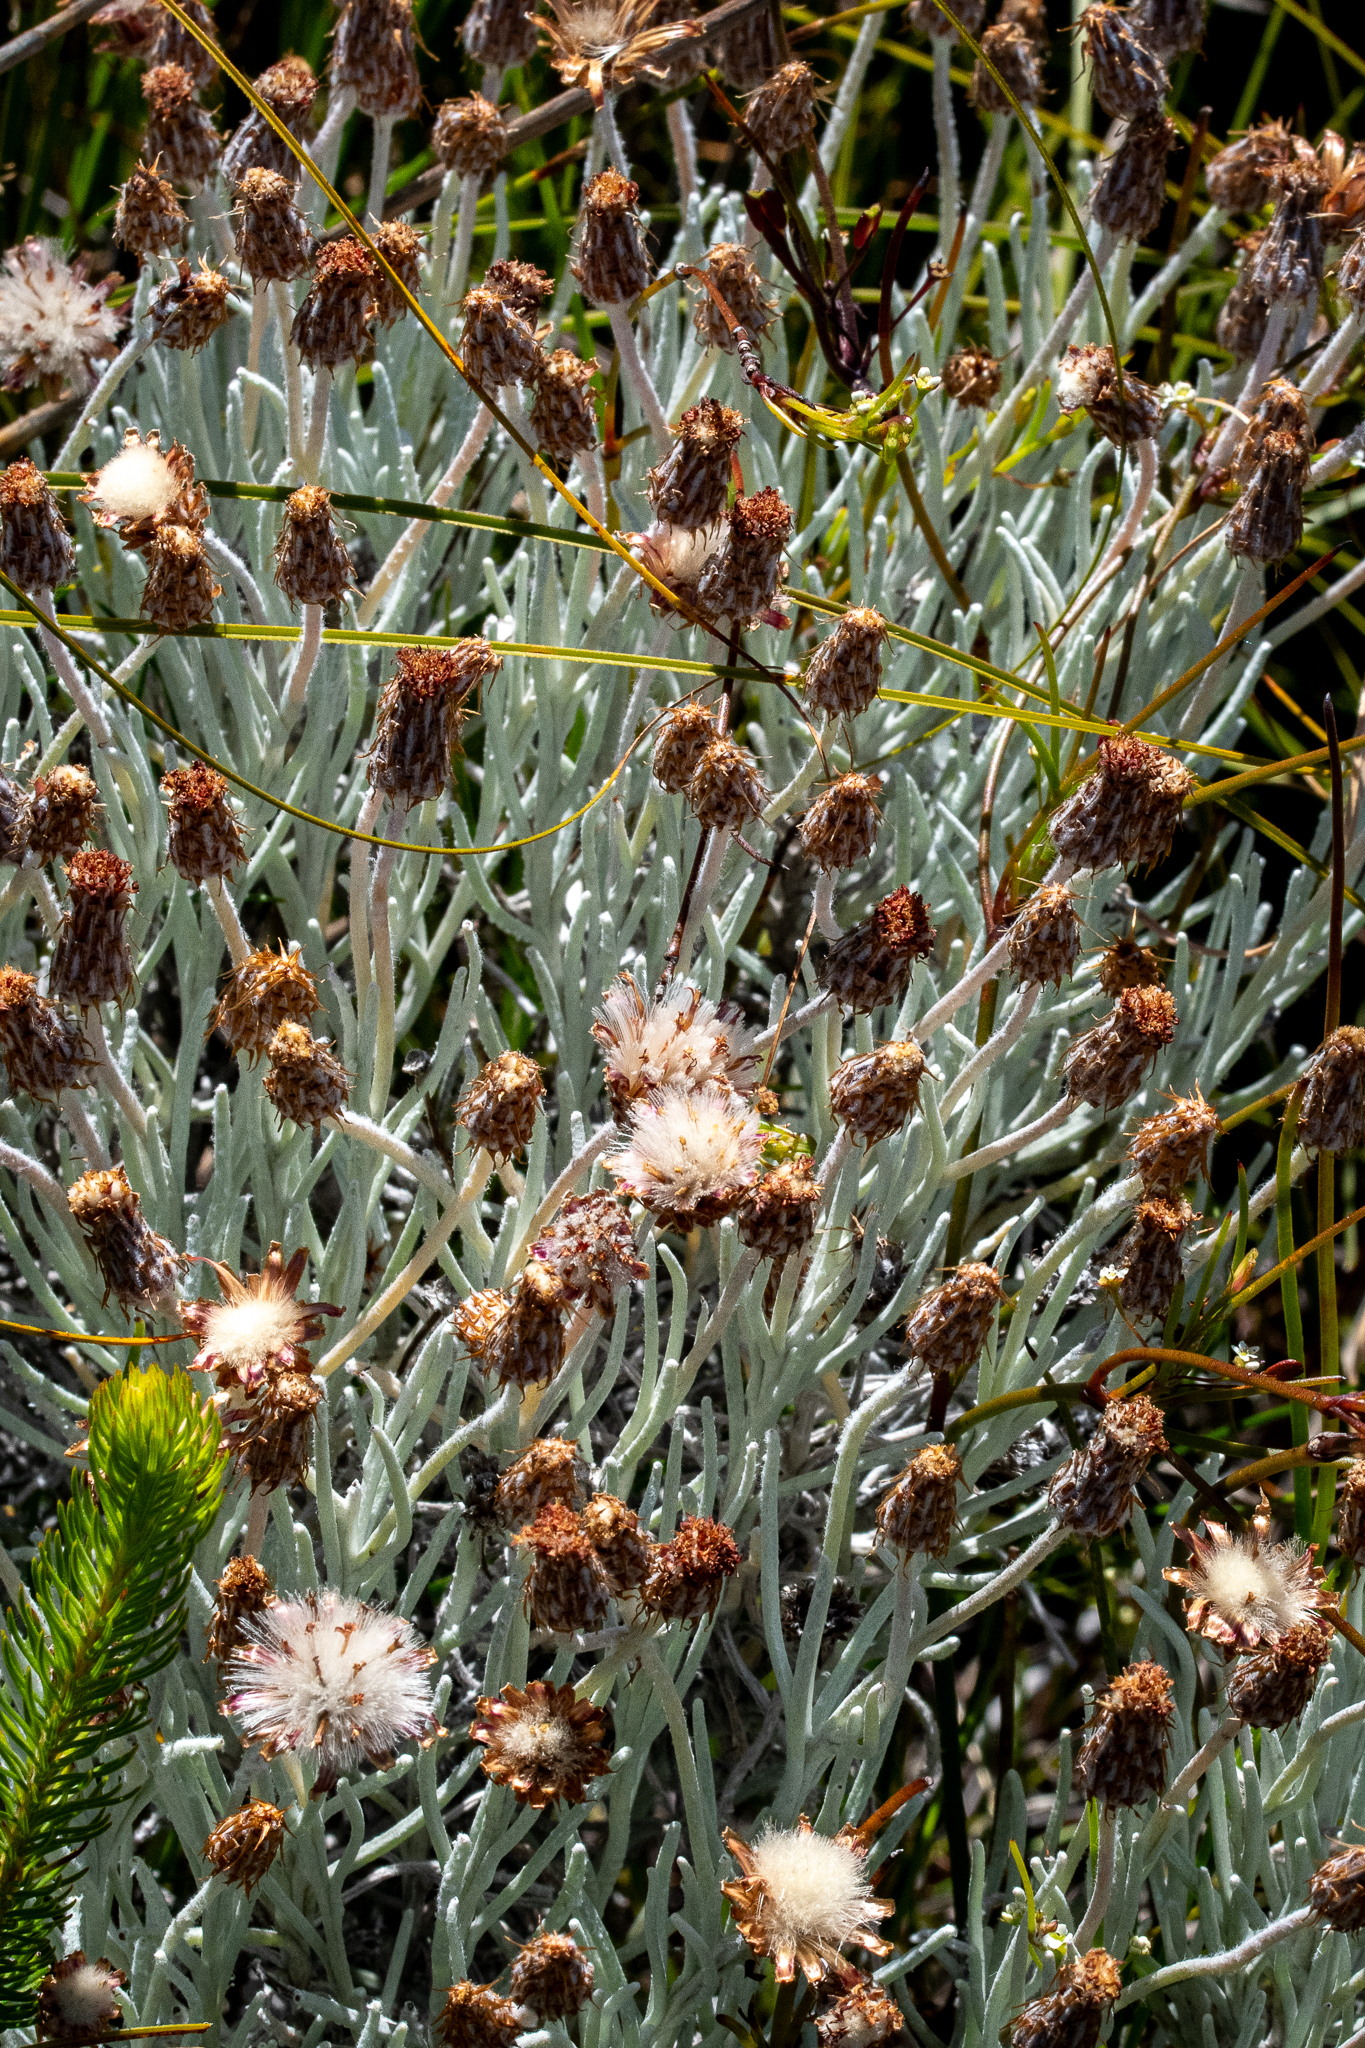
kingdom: Plantae
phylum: Tracheophyta
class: Magnoliopsida
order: Asterales
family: Asteraceae
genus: Syncarpha
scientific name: Syncarpha gnaphaloides
